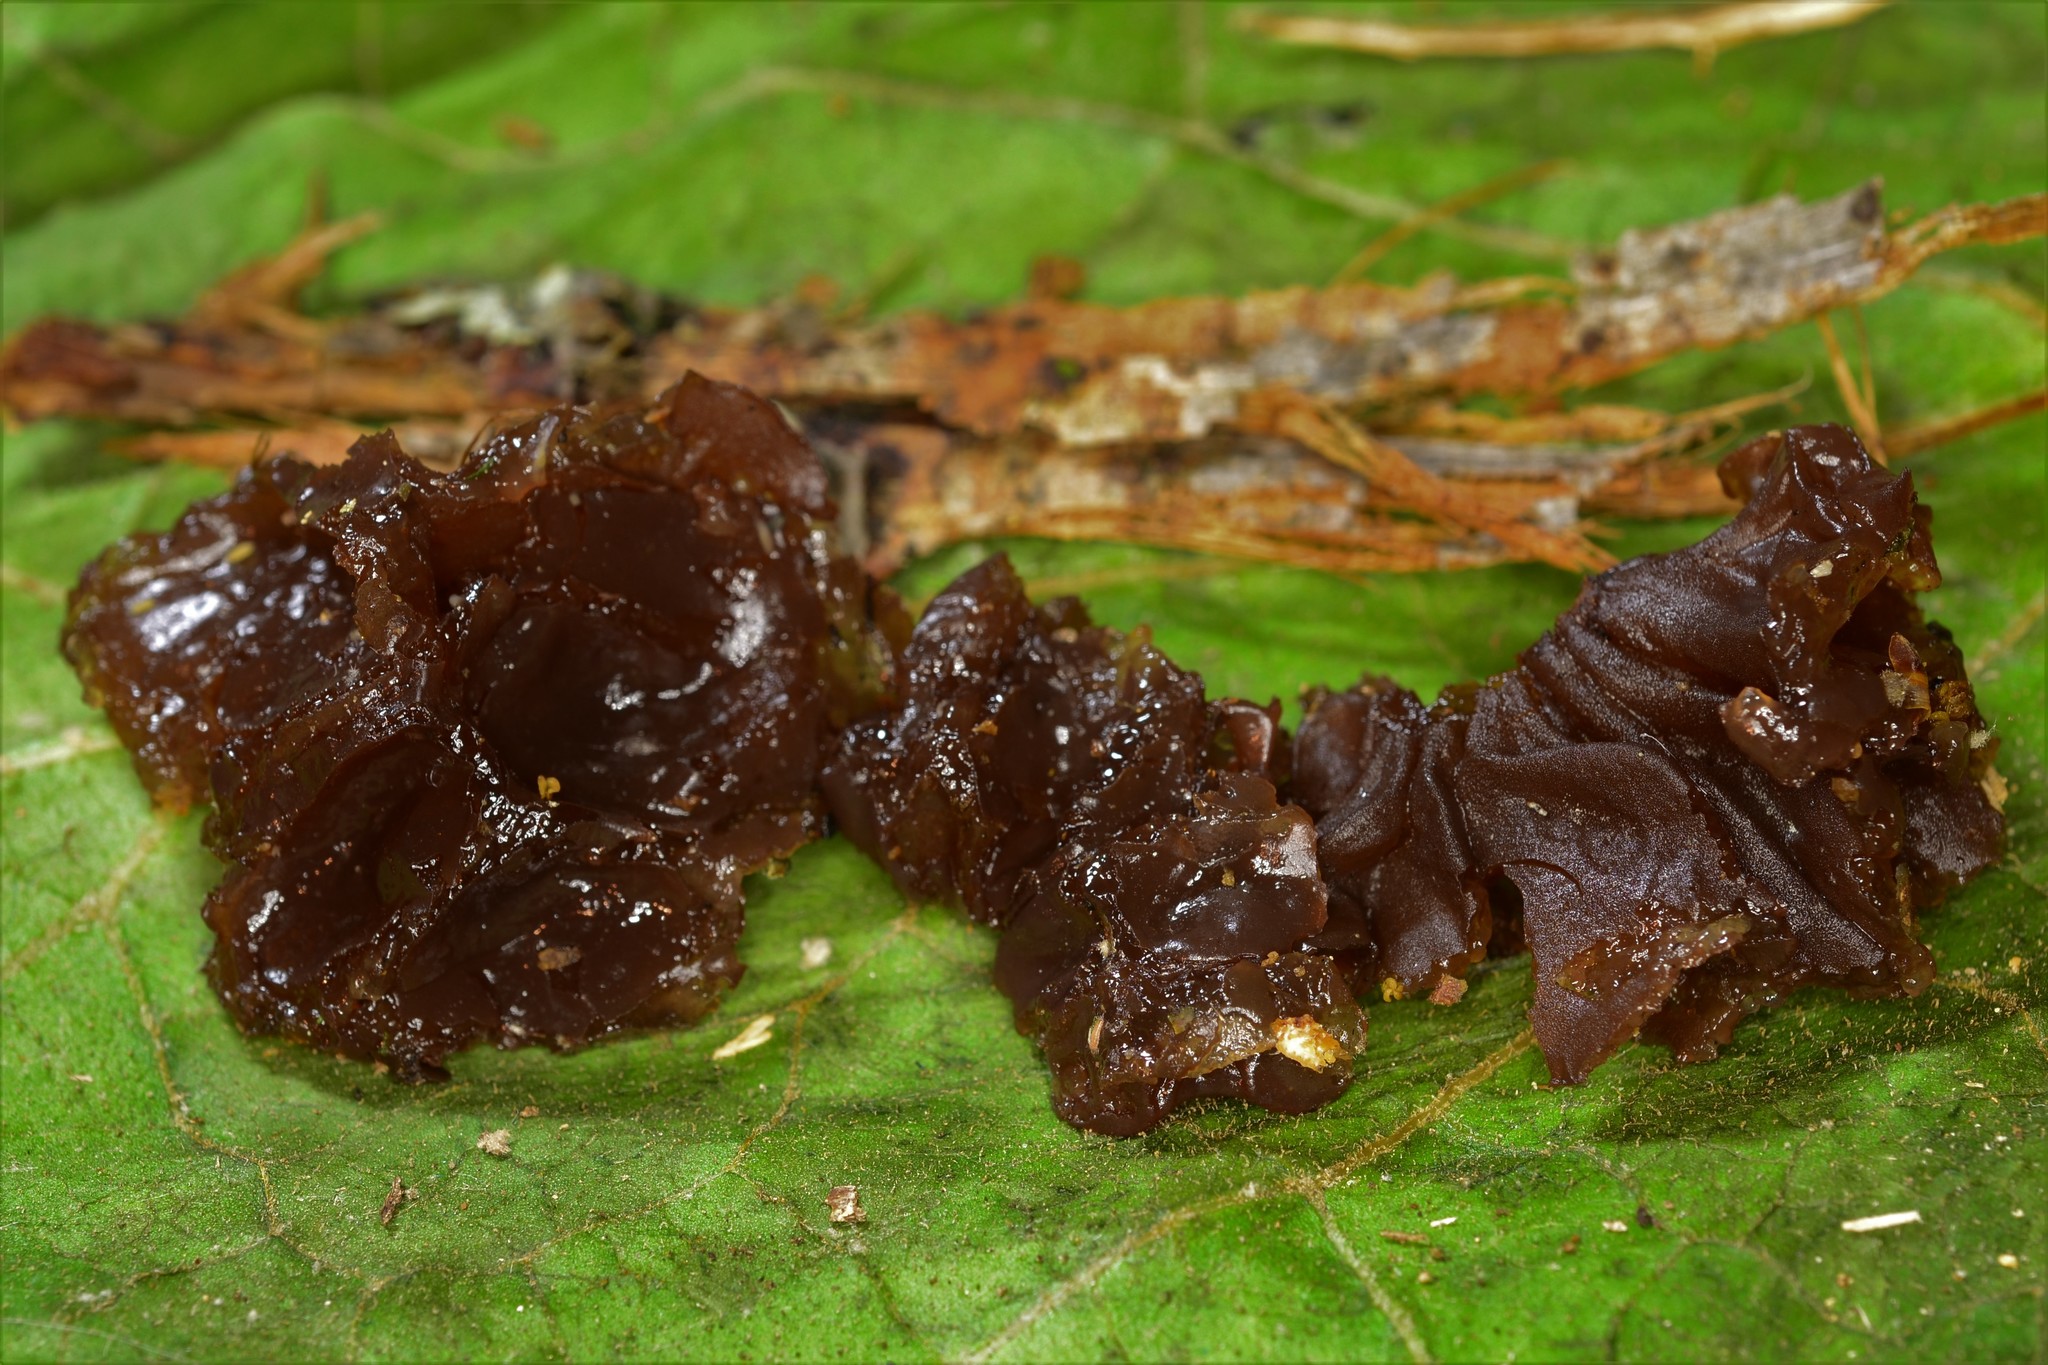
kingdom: Fungi
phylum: Basidiomycota
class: Agaricomycetes
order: Auriculariales
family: Auriculariaceae
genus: Exidia
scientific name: Exidia
